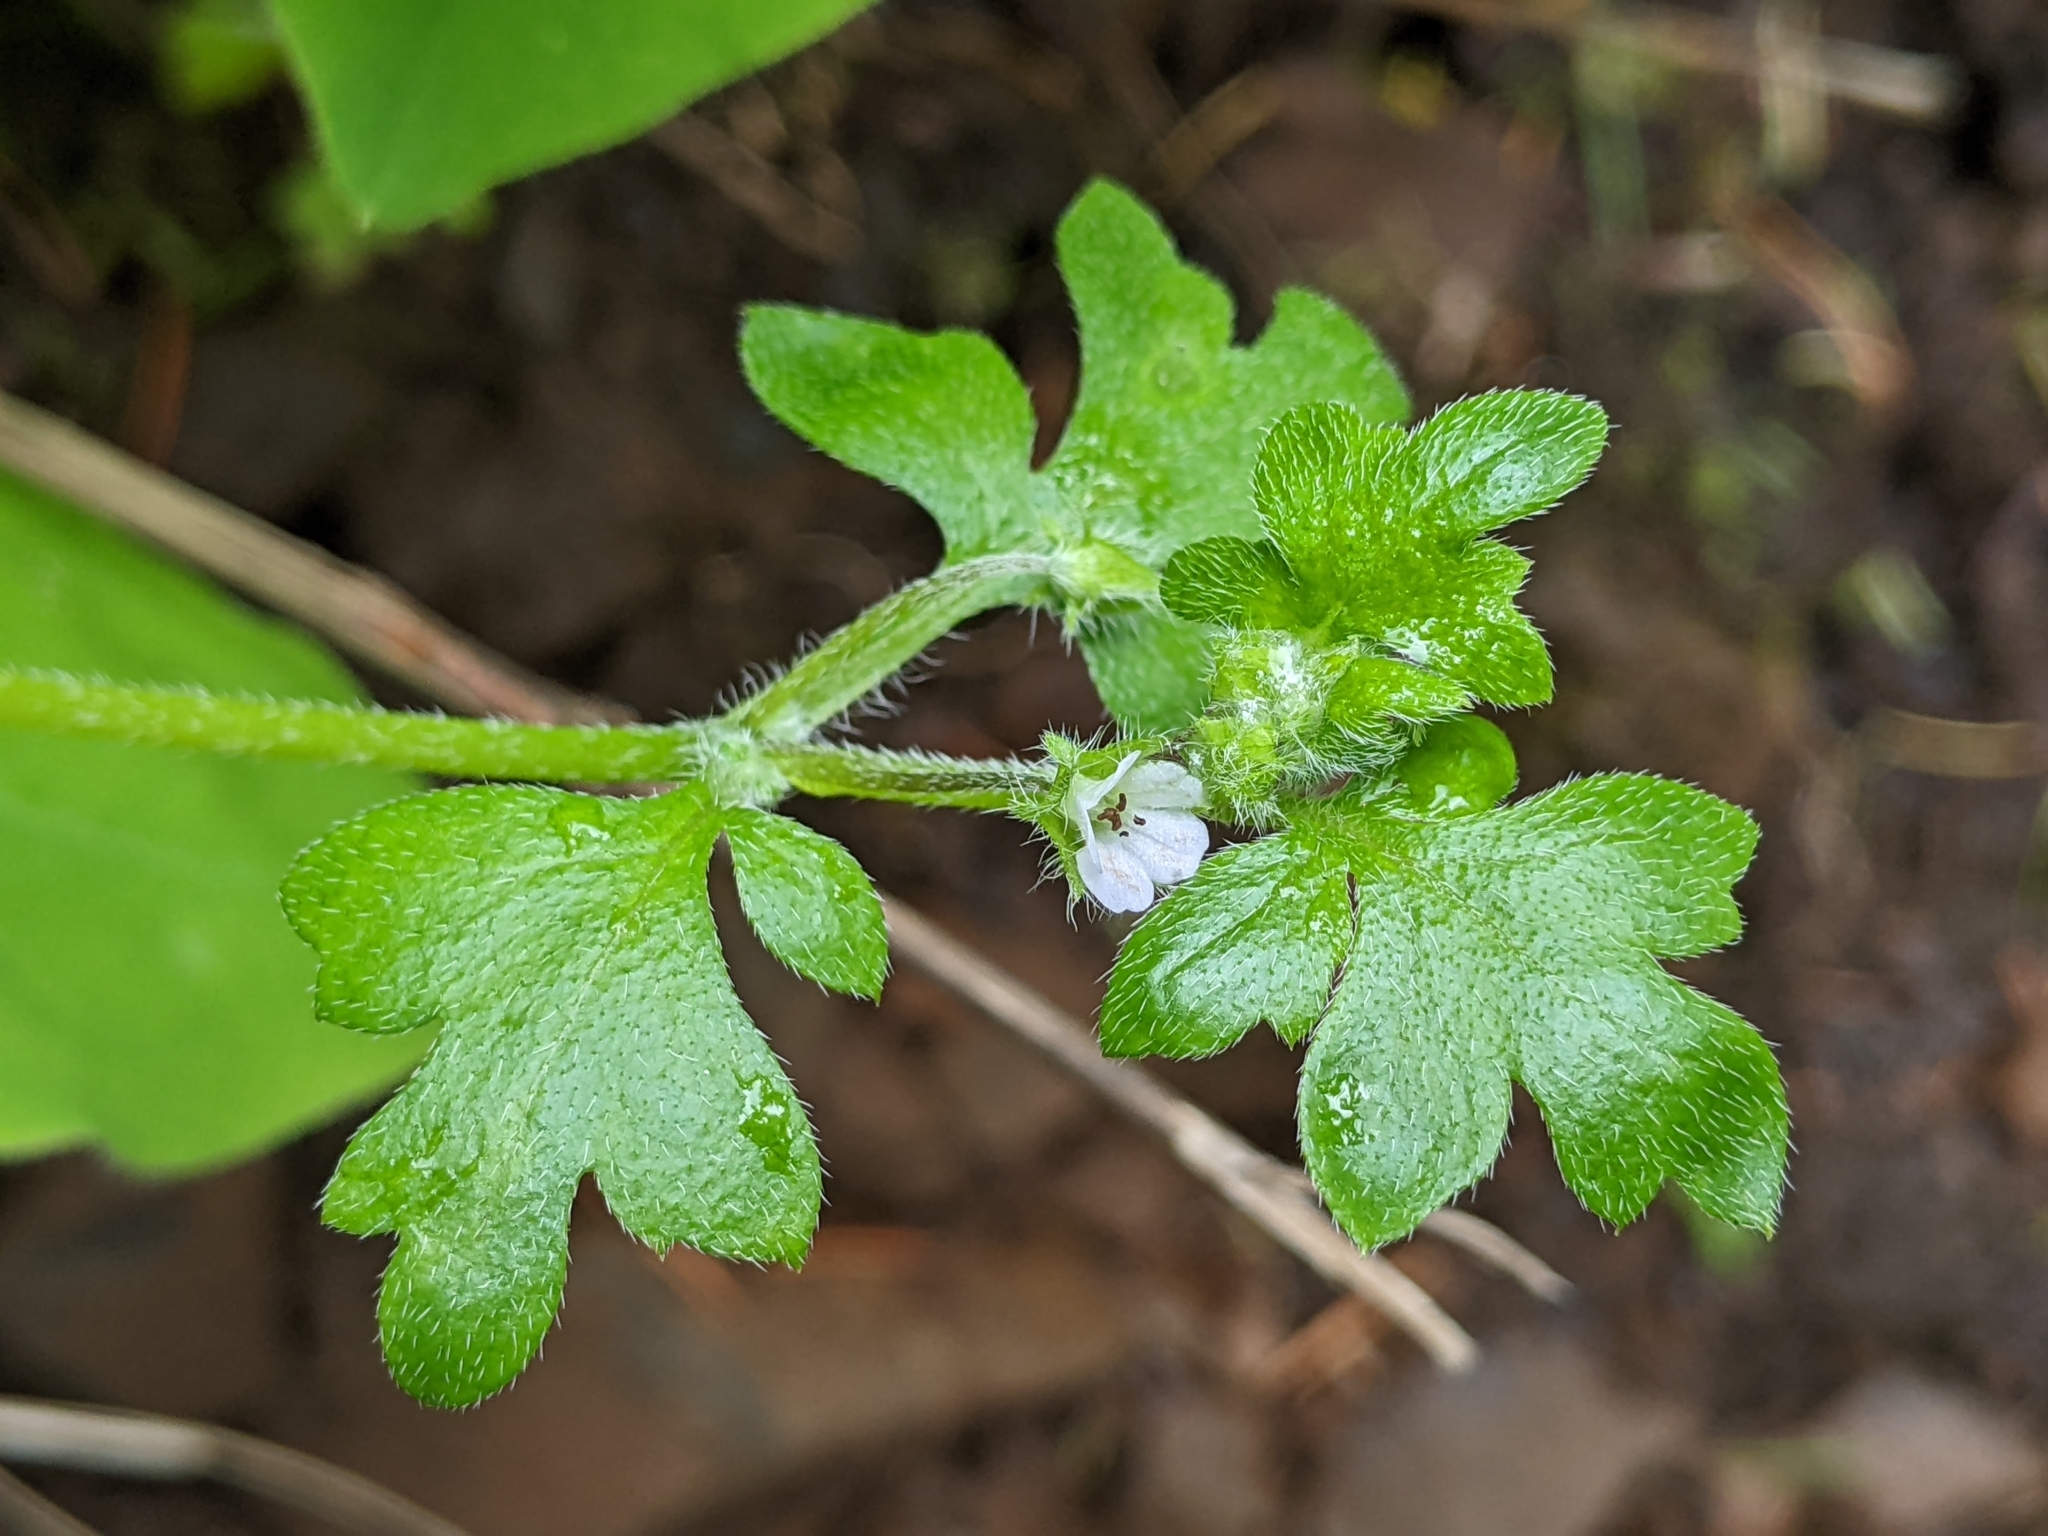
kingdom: Plantae
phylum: Tracheophyta
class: Magnoliopsida
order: Boraginales
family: Hydrophyllaceae
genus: Nemophila
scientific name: Nemophila parviflora
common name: Small-flowered baby-blue-eyes
